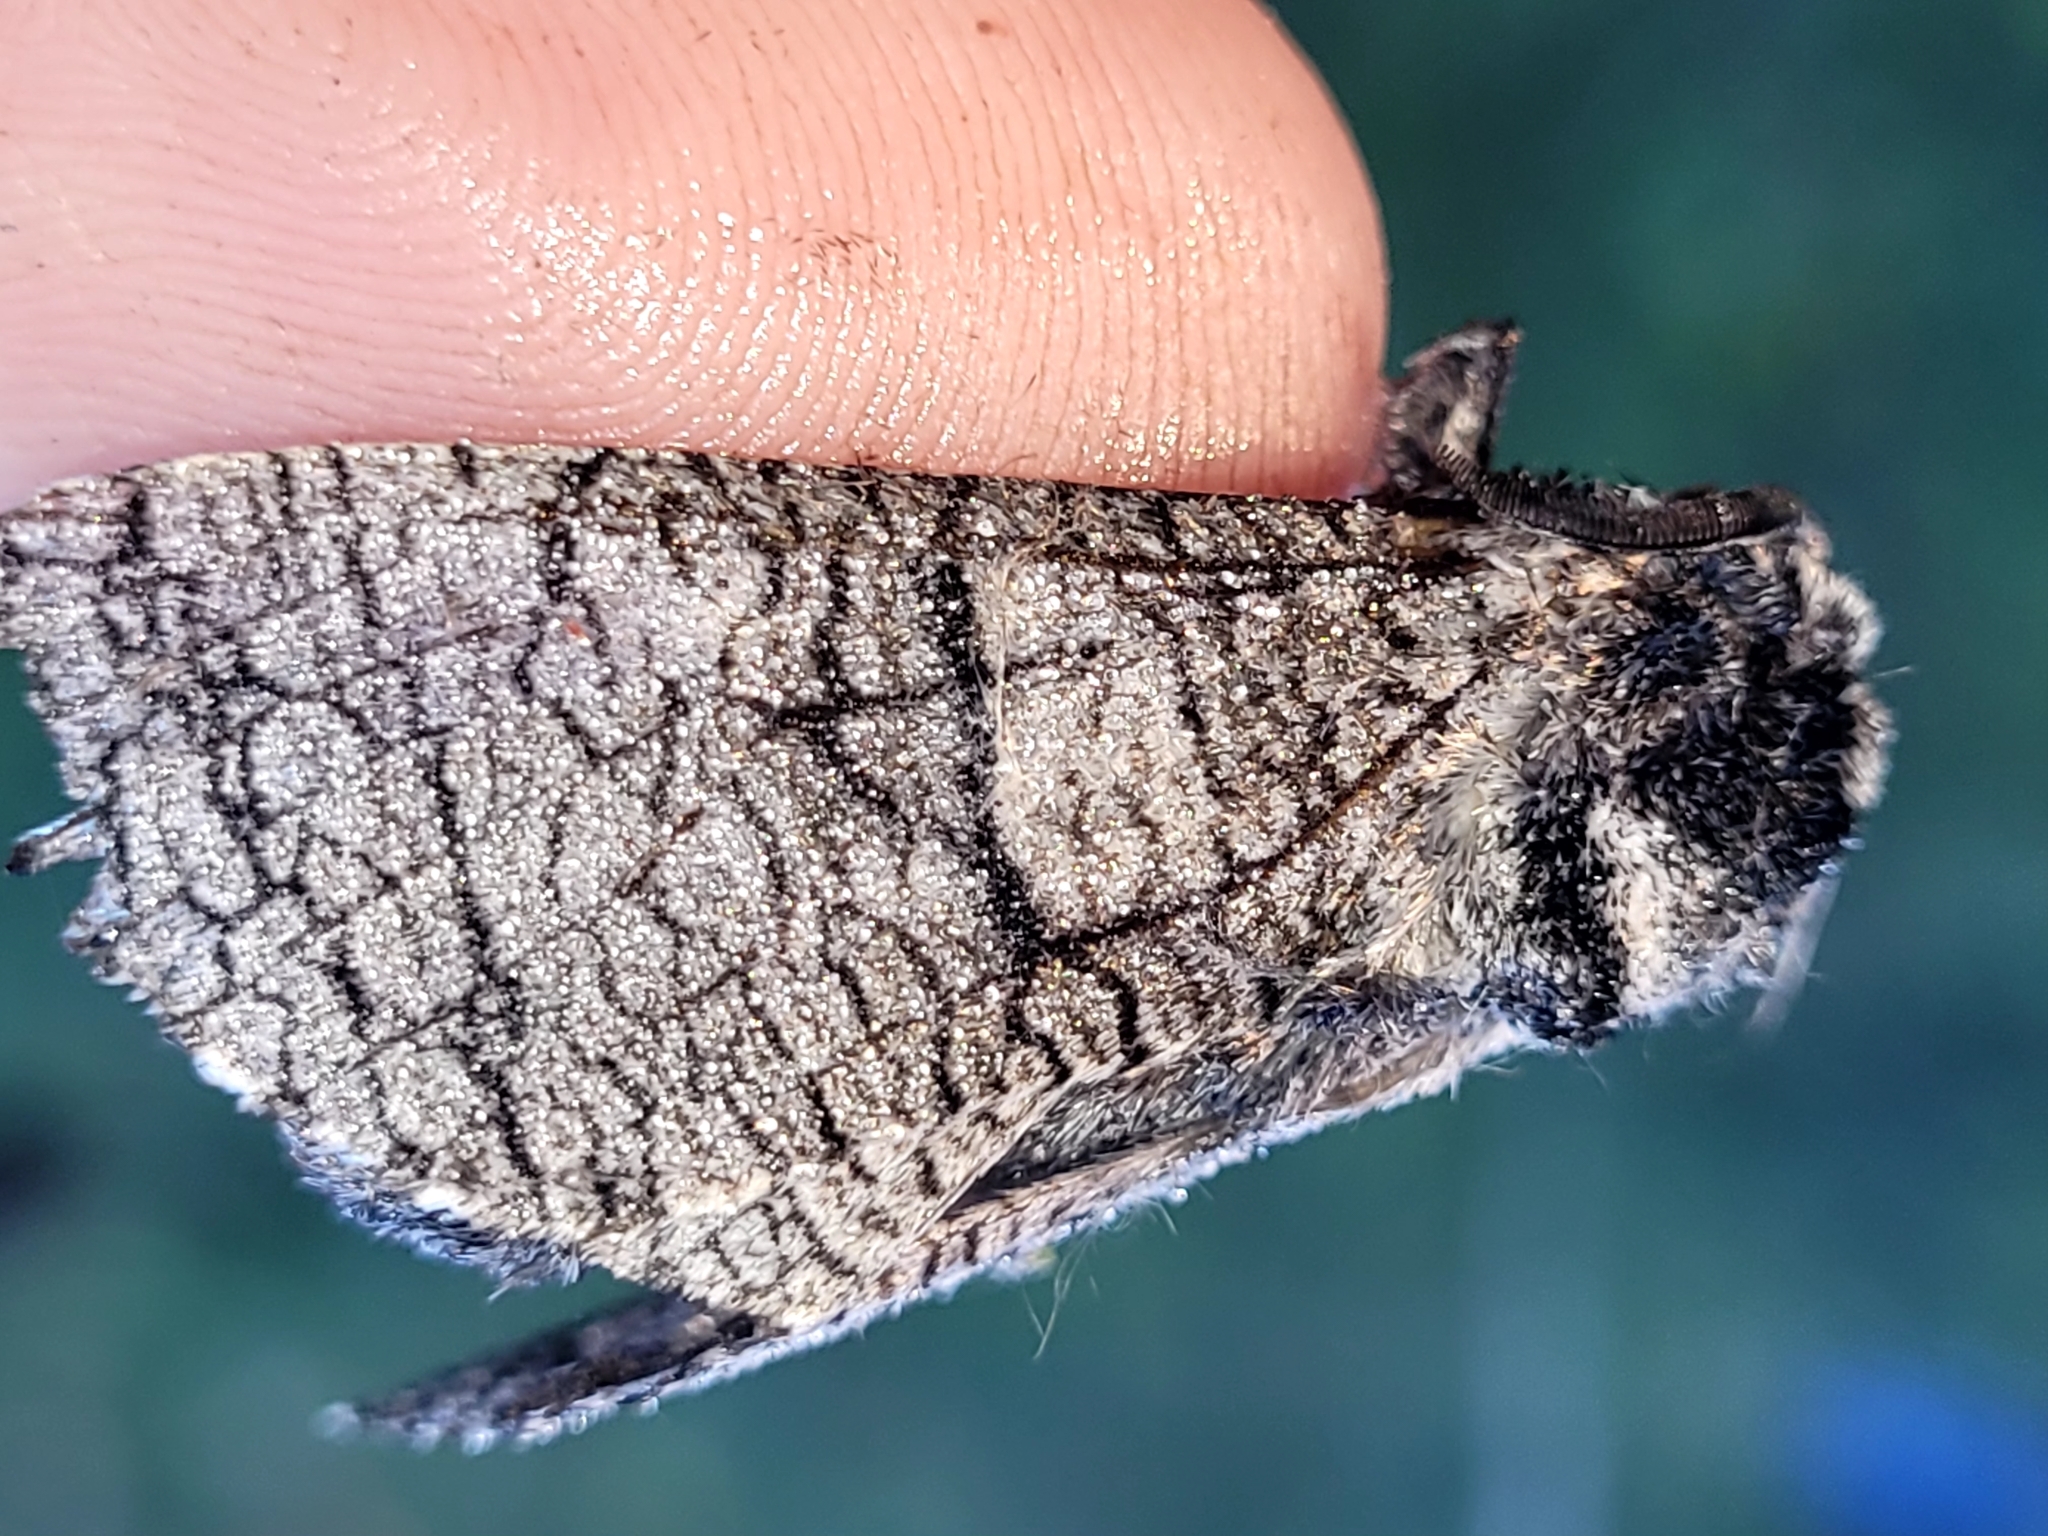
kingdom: Animalia
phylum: Arthropoda
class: Insecta
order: Lepidoptera
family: Cossidae
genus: Acossus
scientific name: Acossus populi
